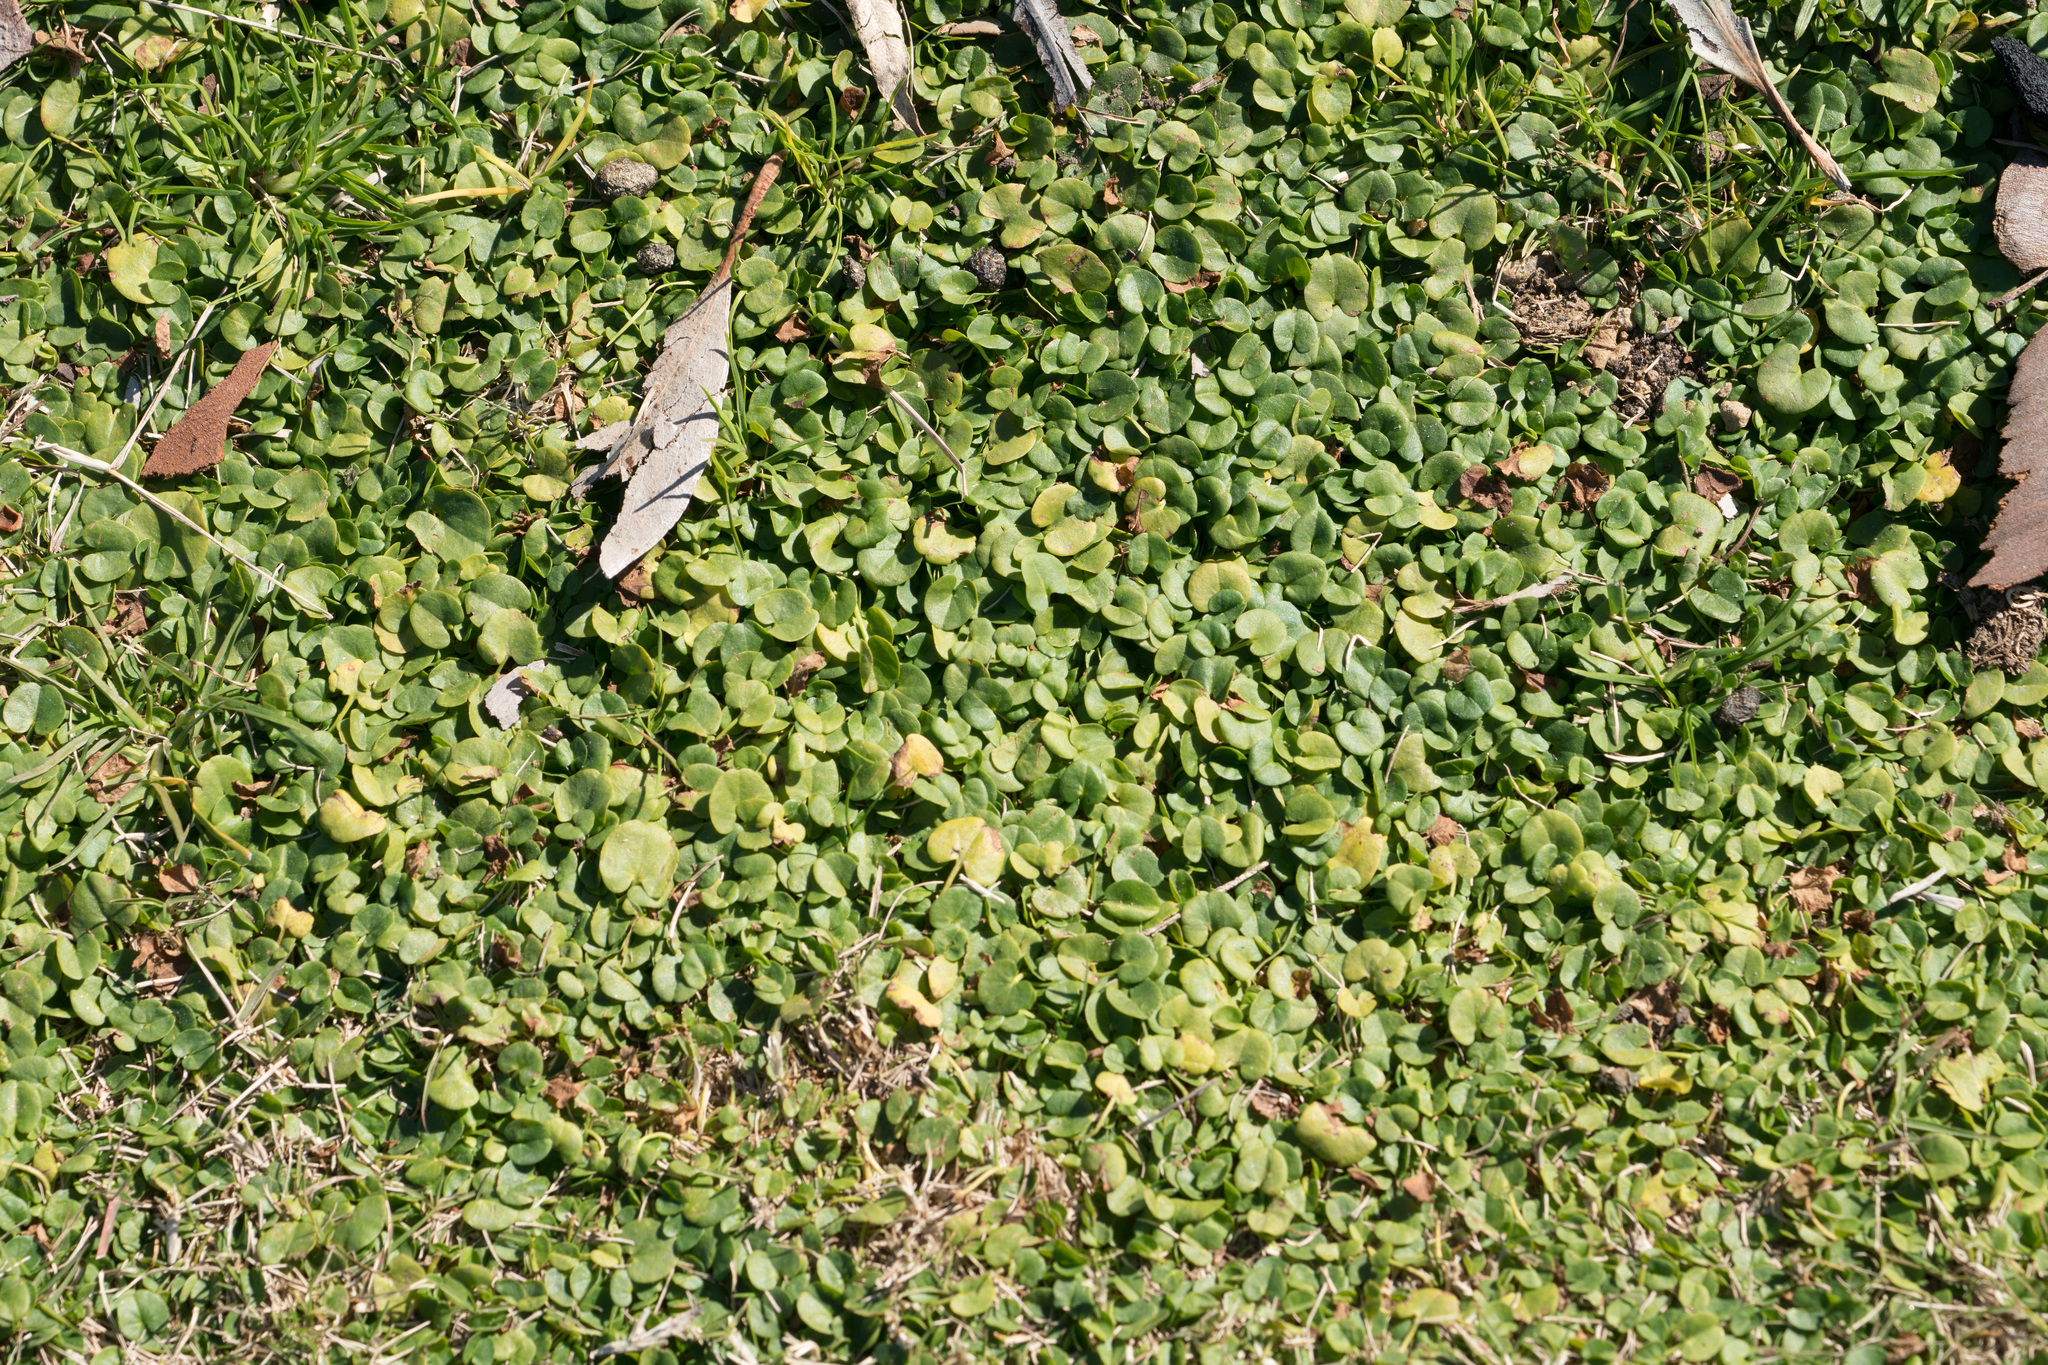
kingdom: Plantae
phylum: Tracheophyta
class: Magnoliopsida
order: Solanales
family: Convolvulaceae
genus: Dichondra
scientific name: Dichondra micrantha
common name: Kidneyweed
